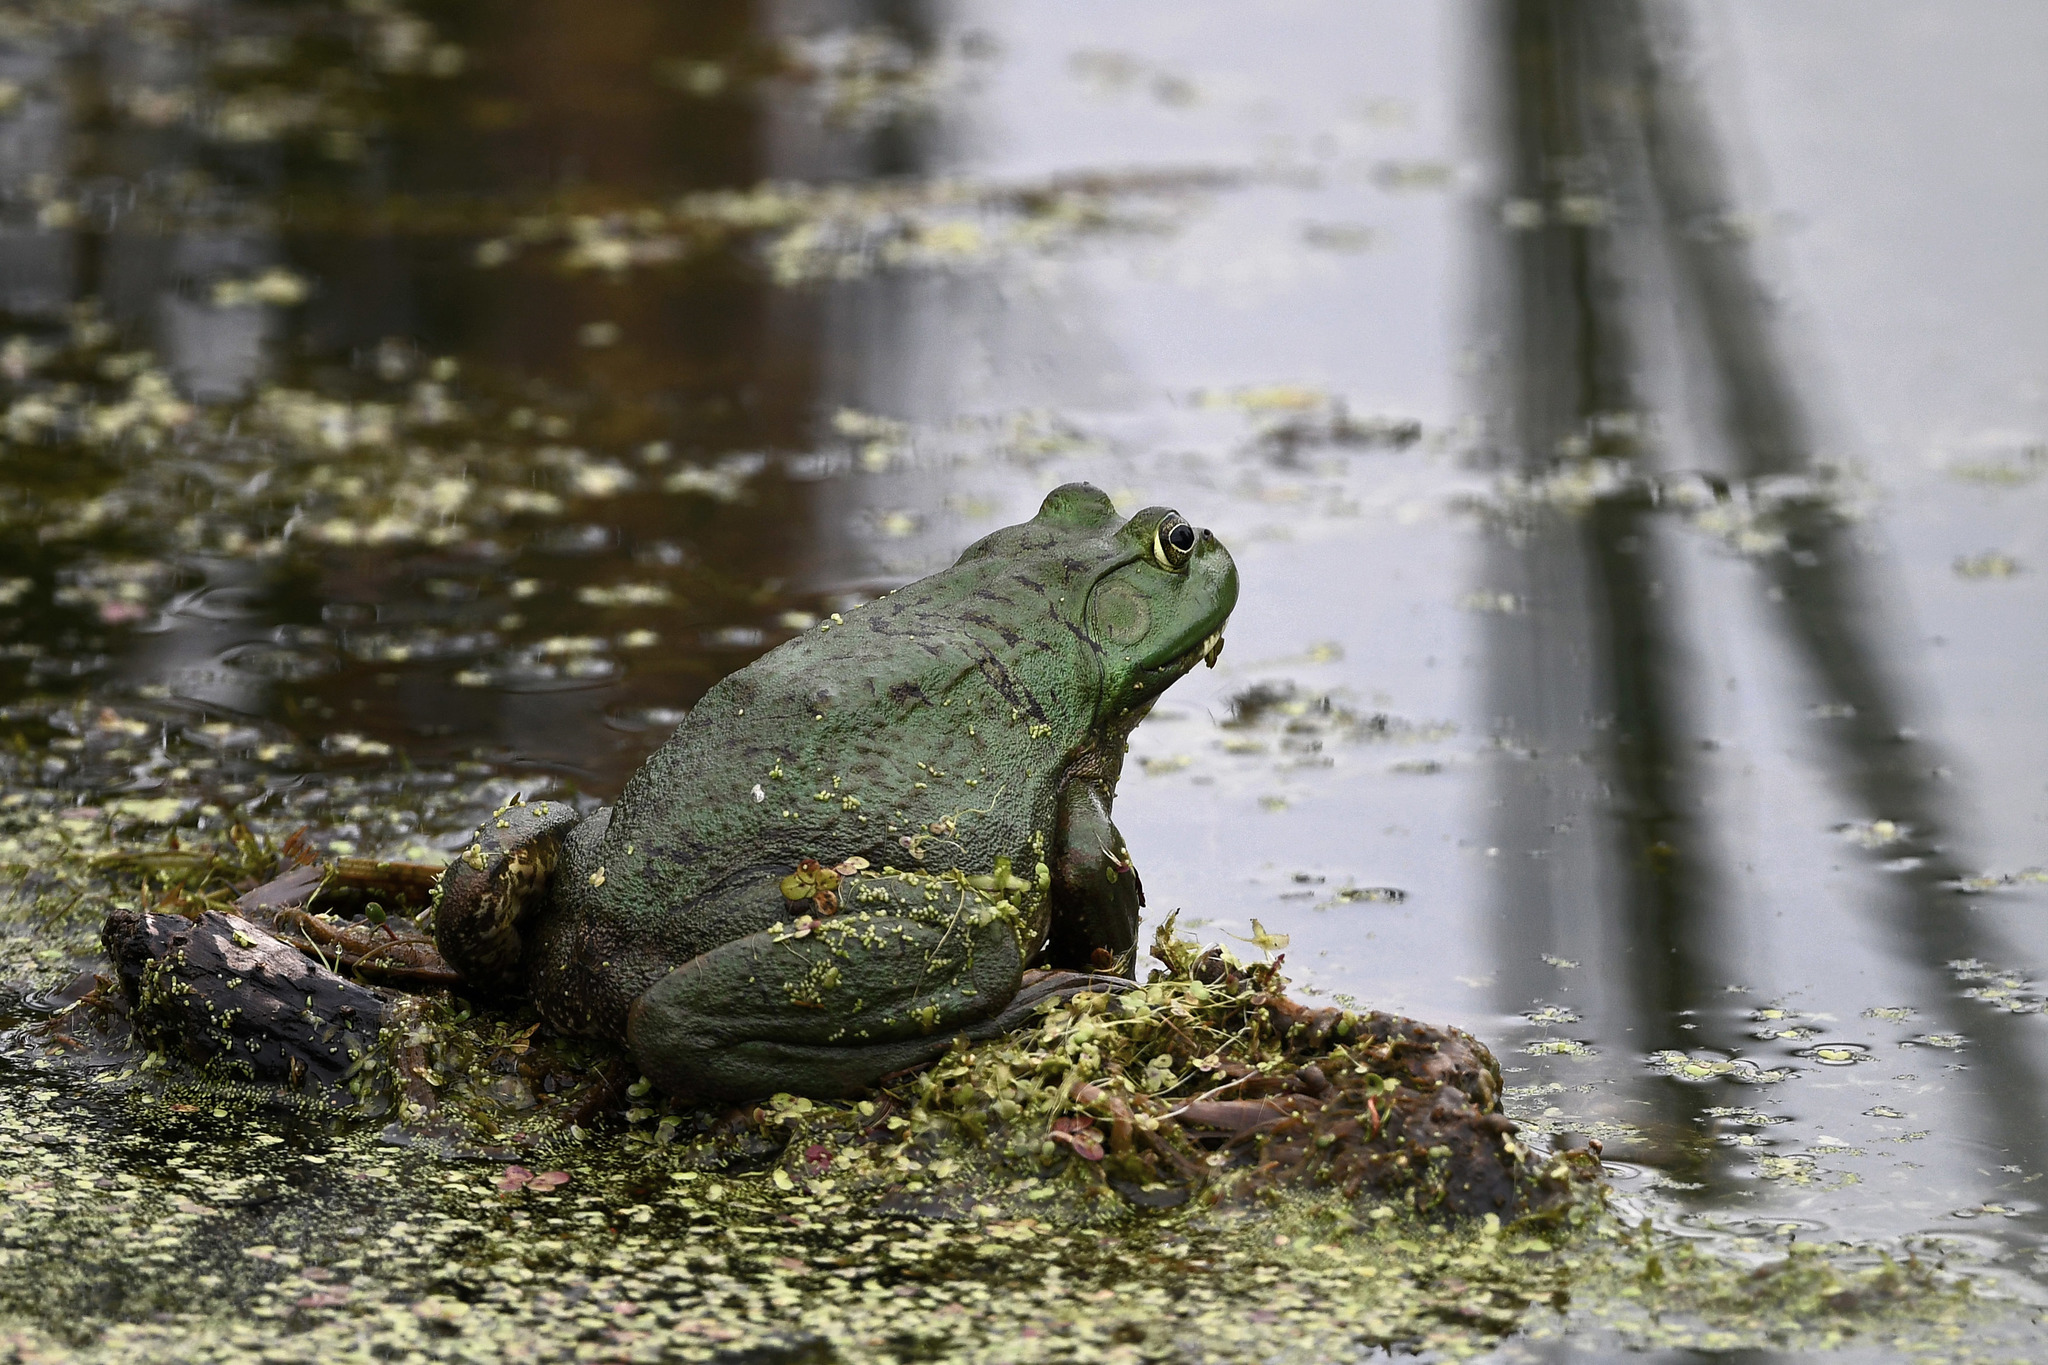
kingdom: Animalia
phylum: Chordata
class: Amphibia
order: Anura
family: Ranidae
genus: Lithobates
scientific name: Lithobates catesbeianus
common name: American bullfrog
